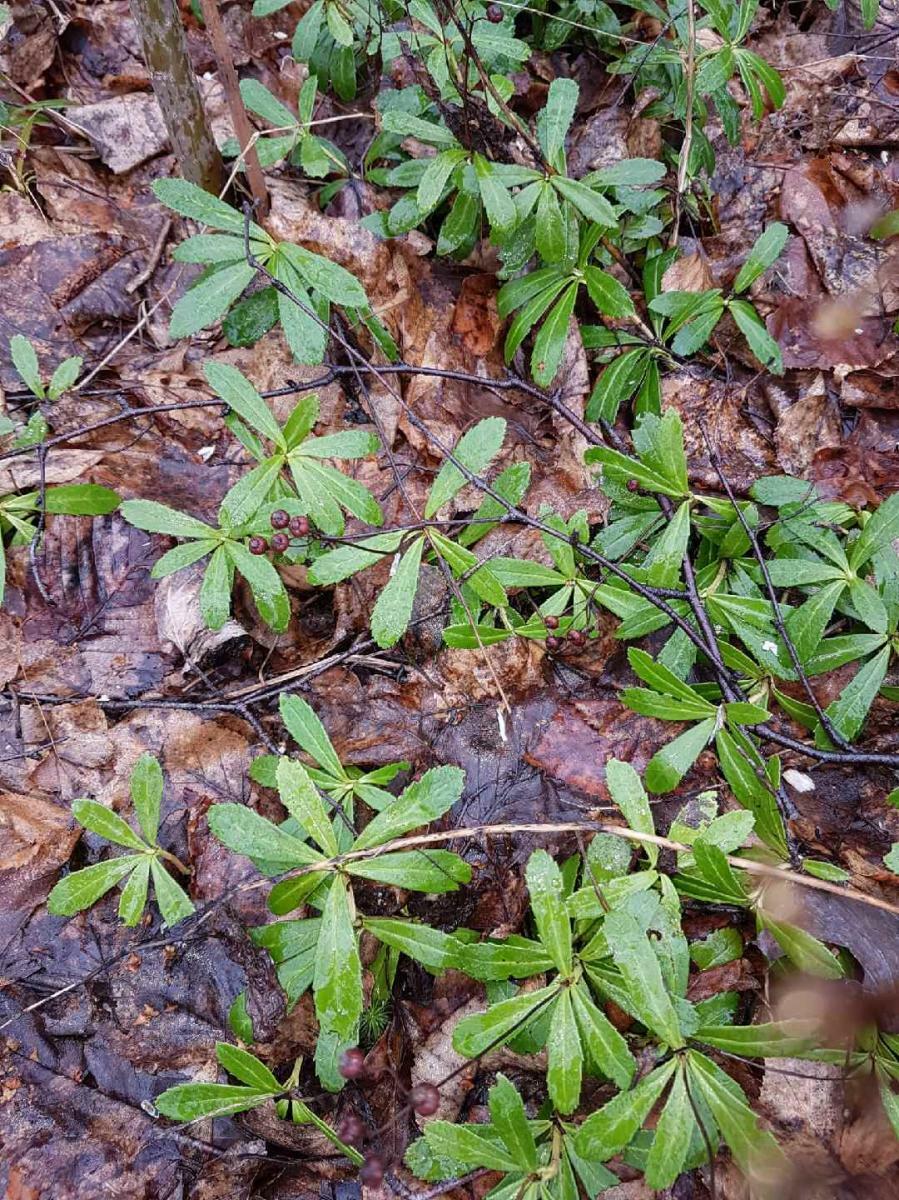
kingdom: Plantae
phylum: Tracheophyta
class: Magnoliopsida
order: Ericales
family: Ericaceae
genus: Chimaphila
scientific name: Chimaphila umbellata
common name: Pipsissewa
